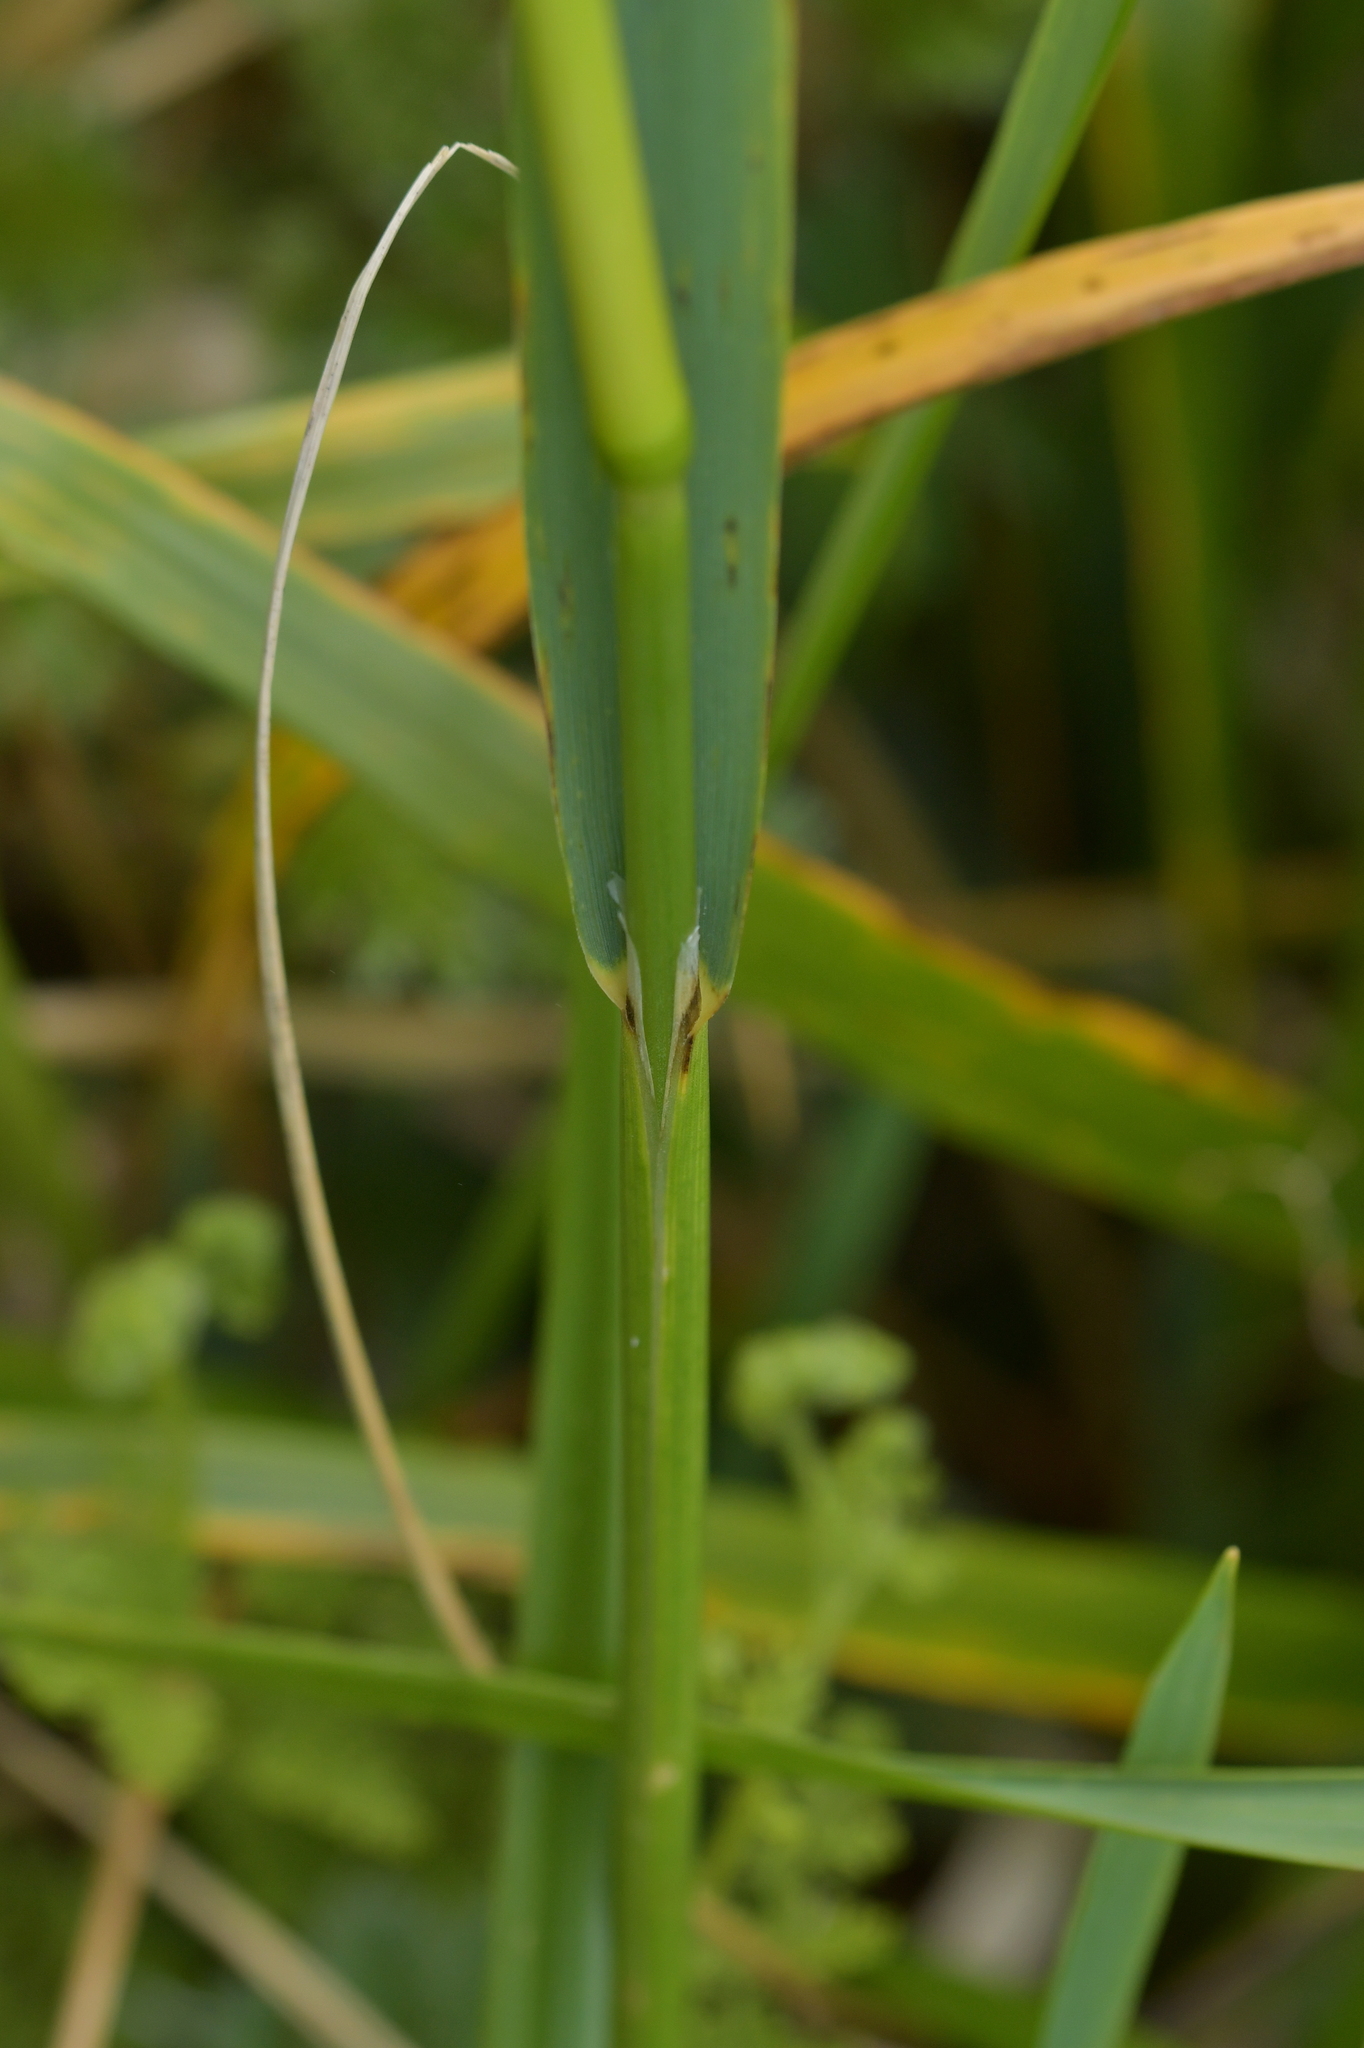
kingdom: Plantae
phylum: Tracheophyta
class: Liliopsida
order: Poales
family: Poaceae
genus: Anthoxanthum
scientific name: Anthoxanthum redolens
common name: Sweet holy grass
